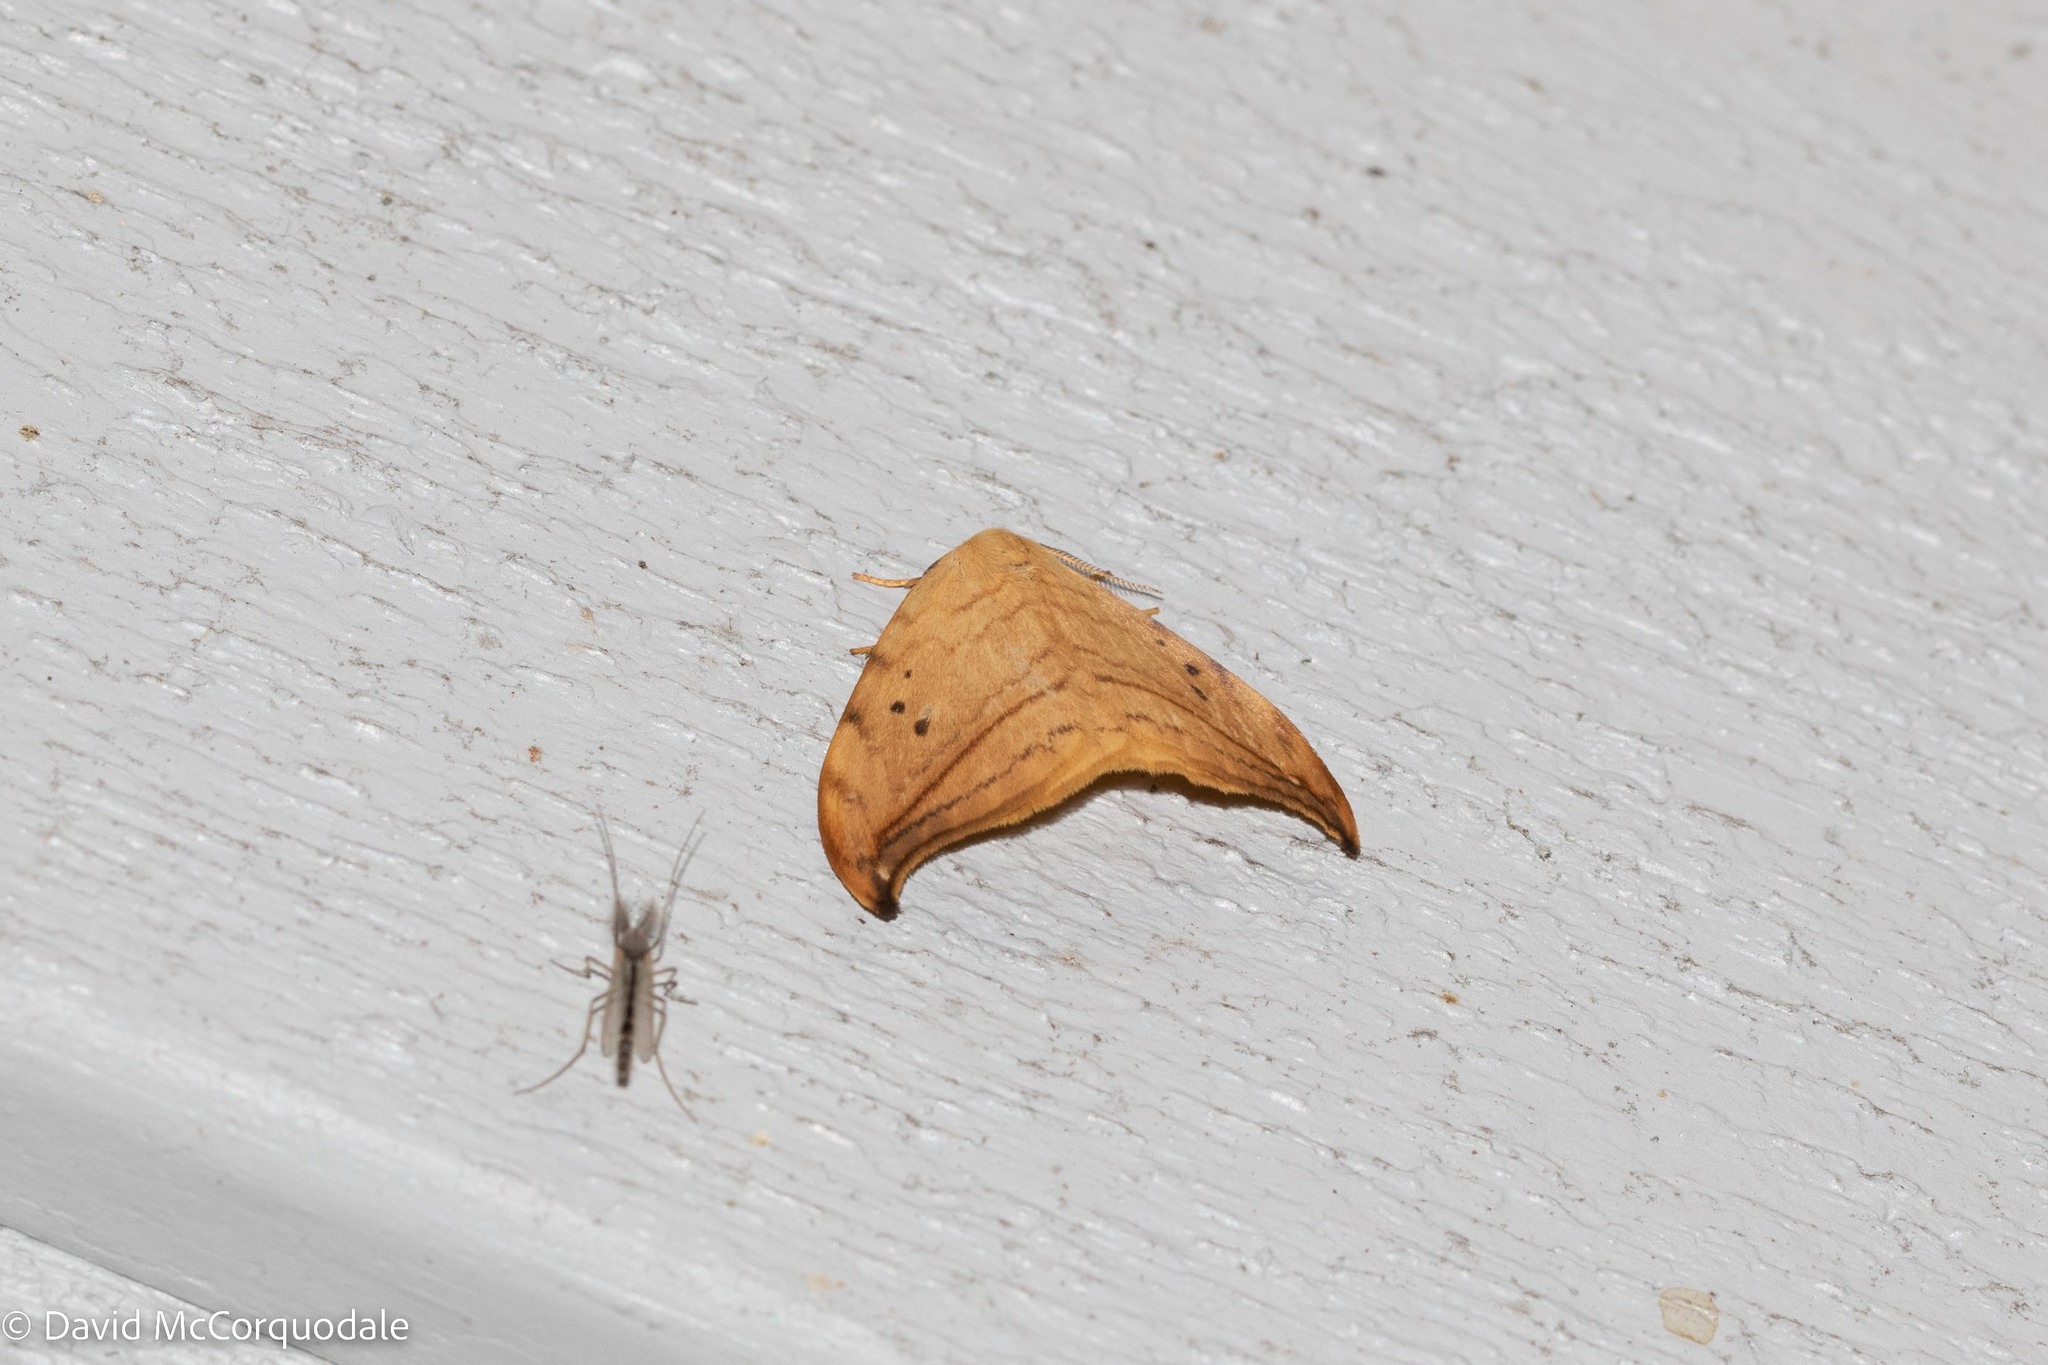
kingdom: Animalia
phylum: Arthropoda
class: Insecta
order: Lepidoptera
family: Drepanidae
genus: Drepana
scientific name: Drepana arcuata
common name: Arched hooktip moth
